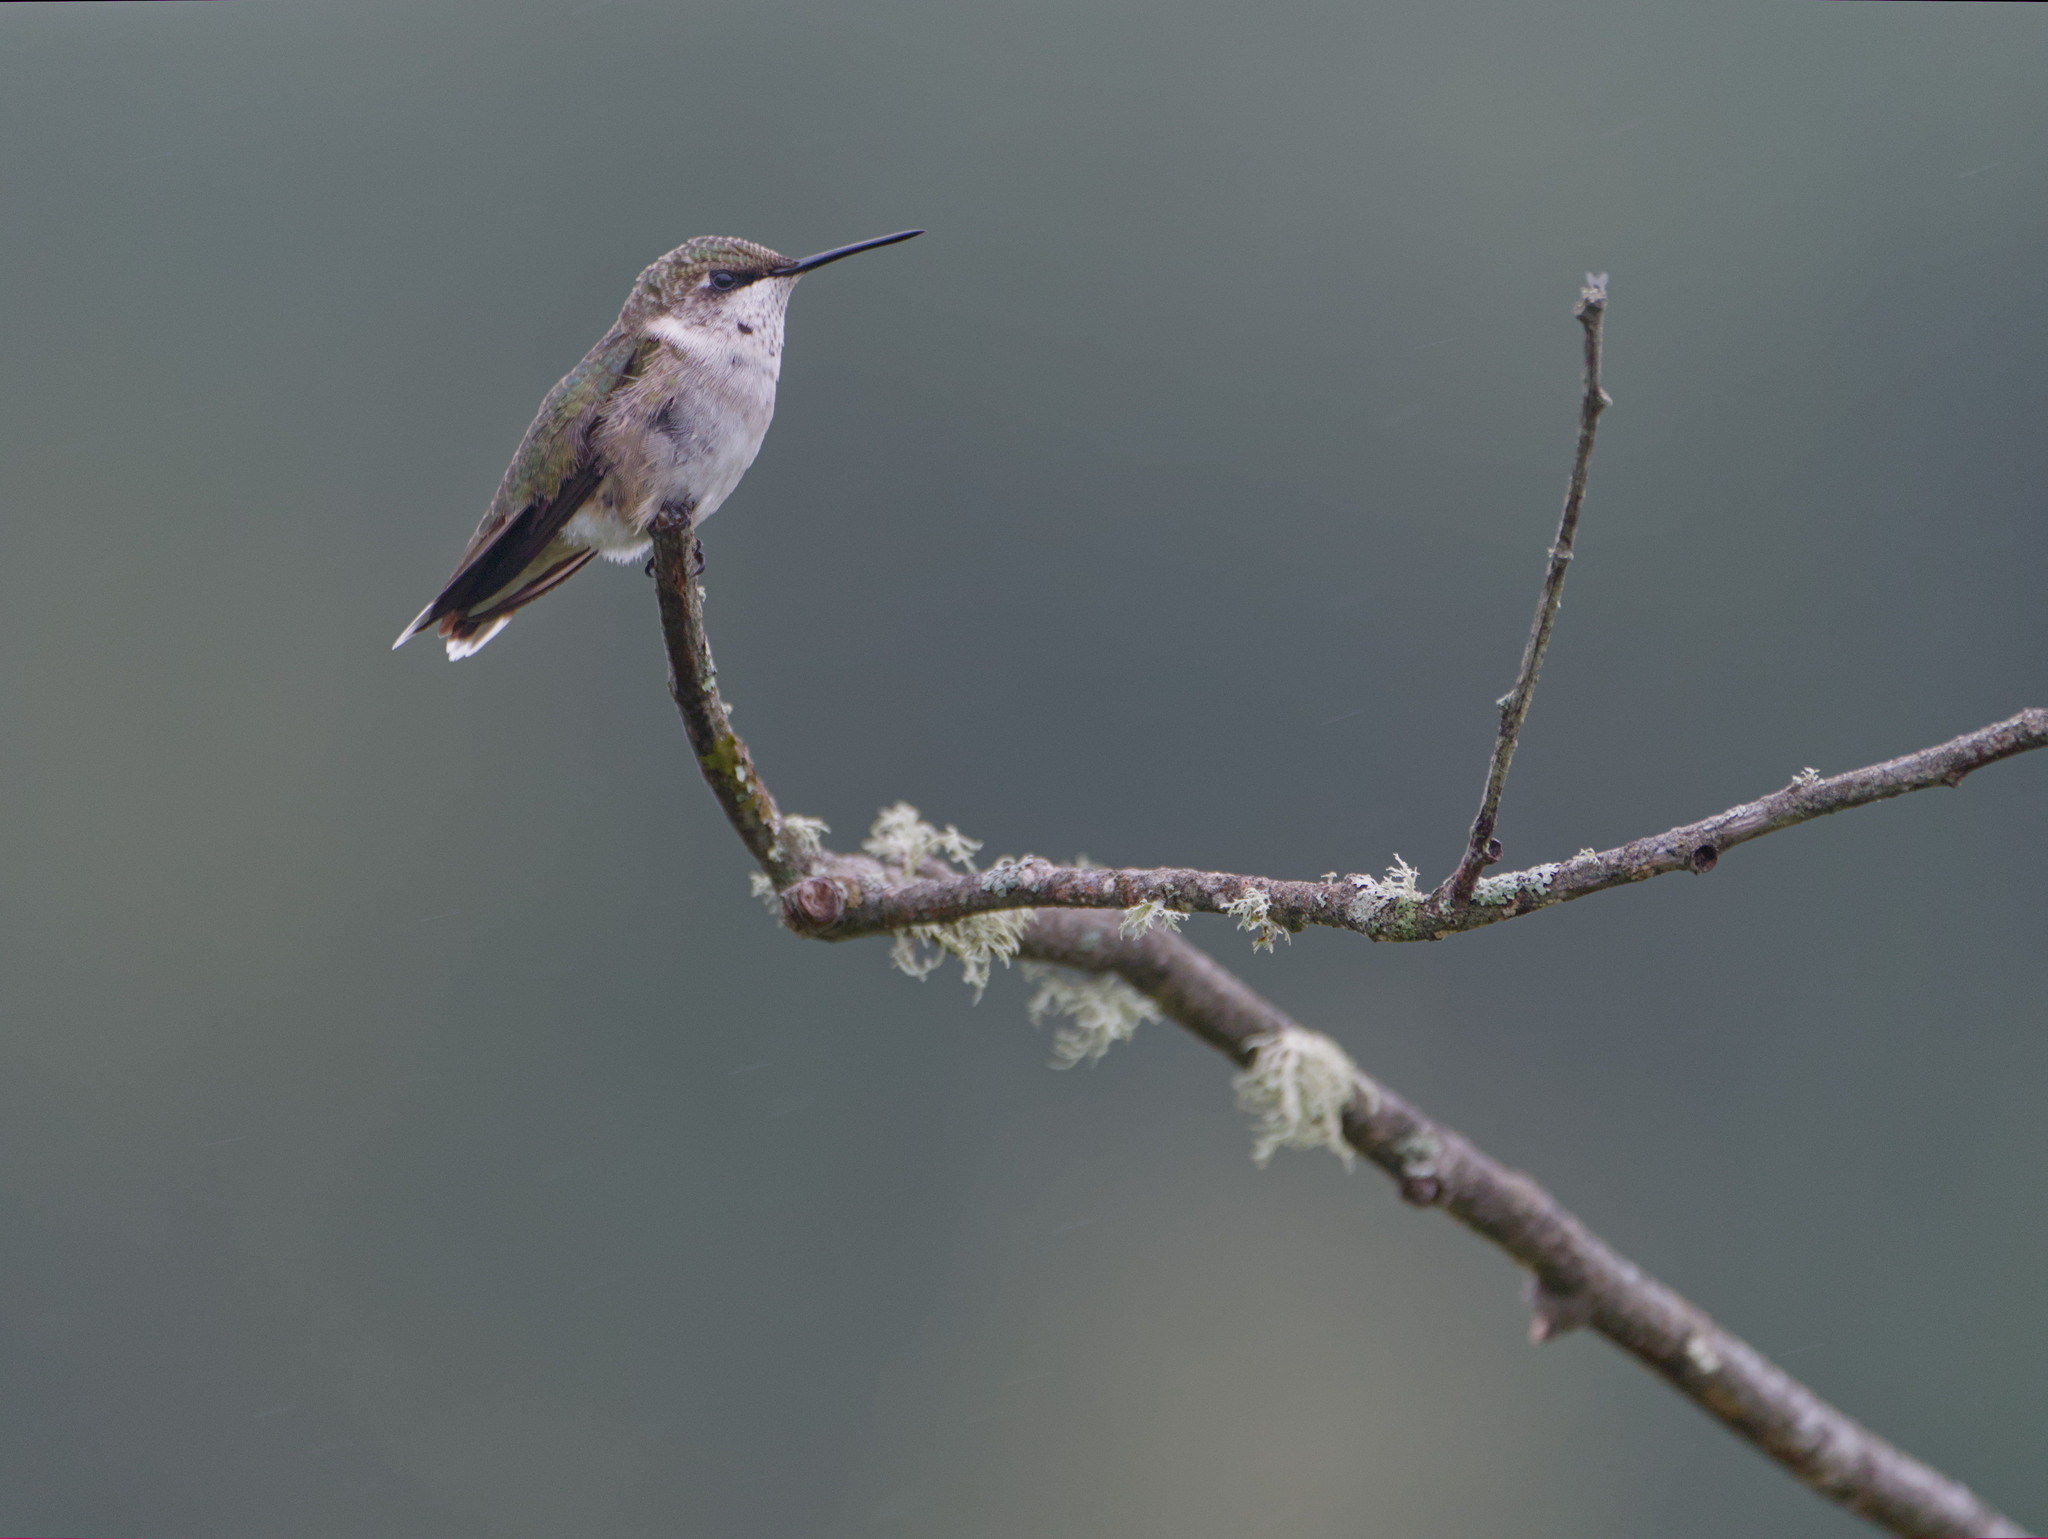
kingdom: Animalia
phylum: Chordata
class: Aves
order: Apodiformes
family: Trochilidae
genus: Archilochus
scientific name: Archilochus colubris
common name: Ruby-throated hummingbird
